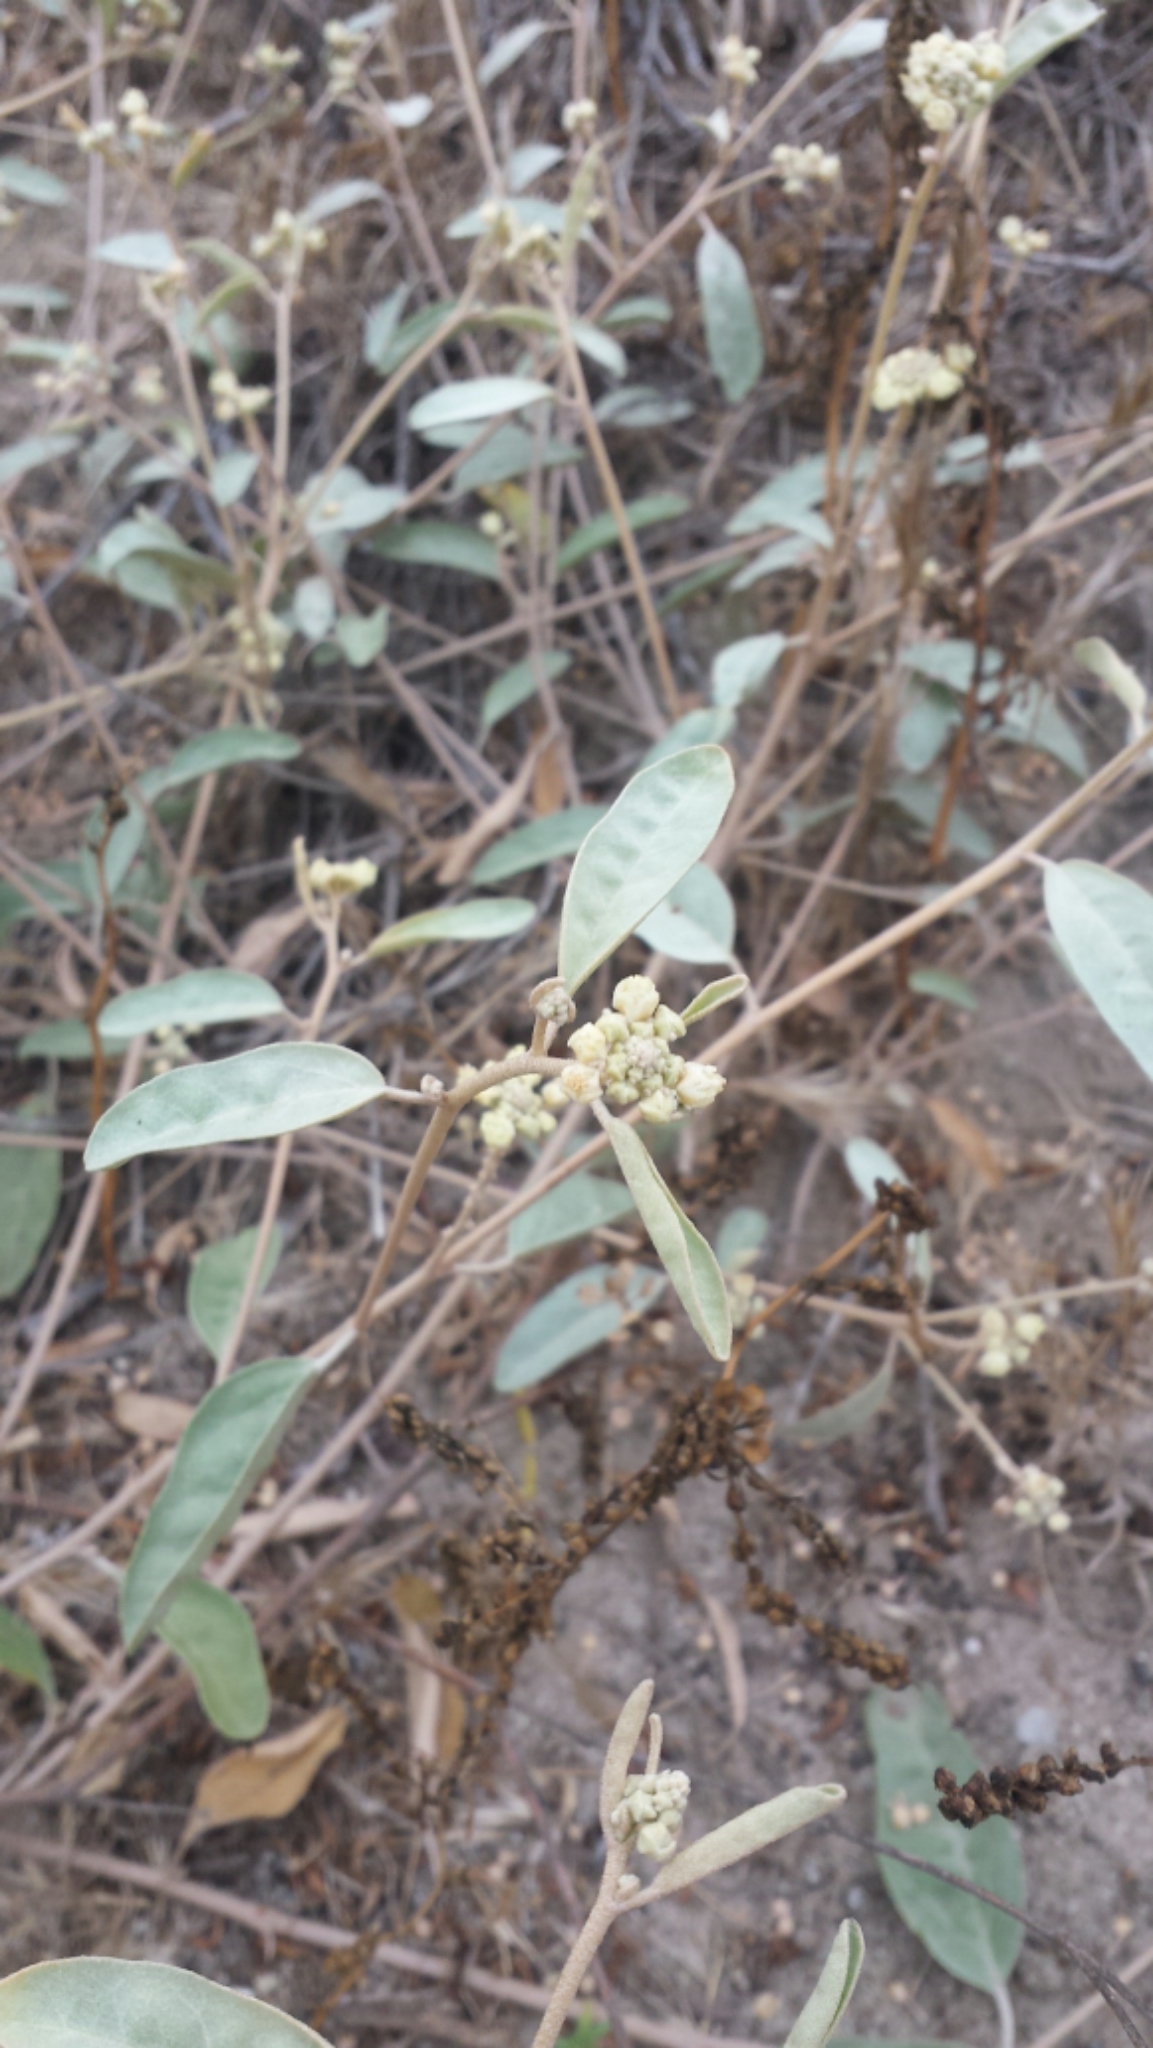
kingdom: Plantae
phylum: Tracheophyta
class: Magnoliopsida
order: Malpighiales
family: Euphorbiaceae
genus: Croton
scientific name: Croton californicus
